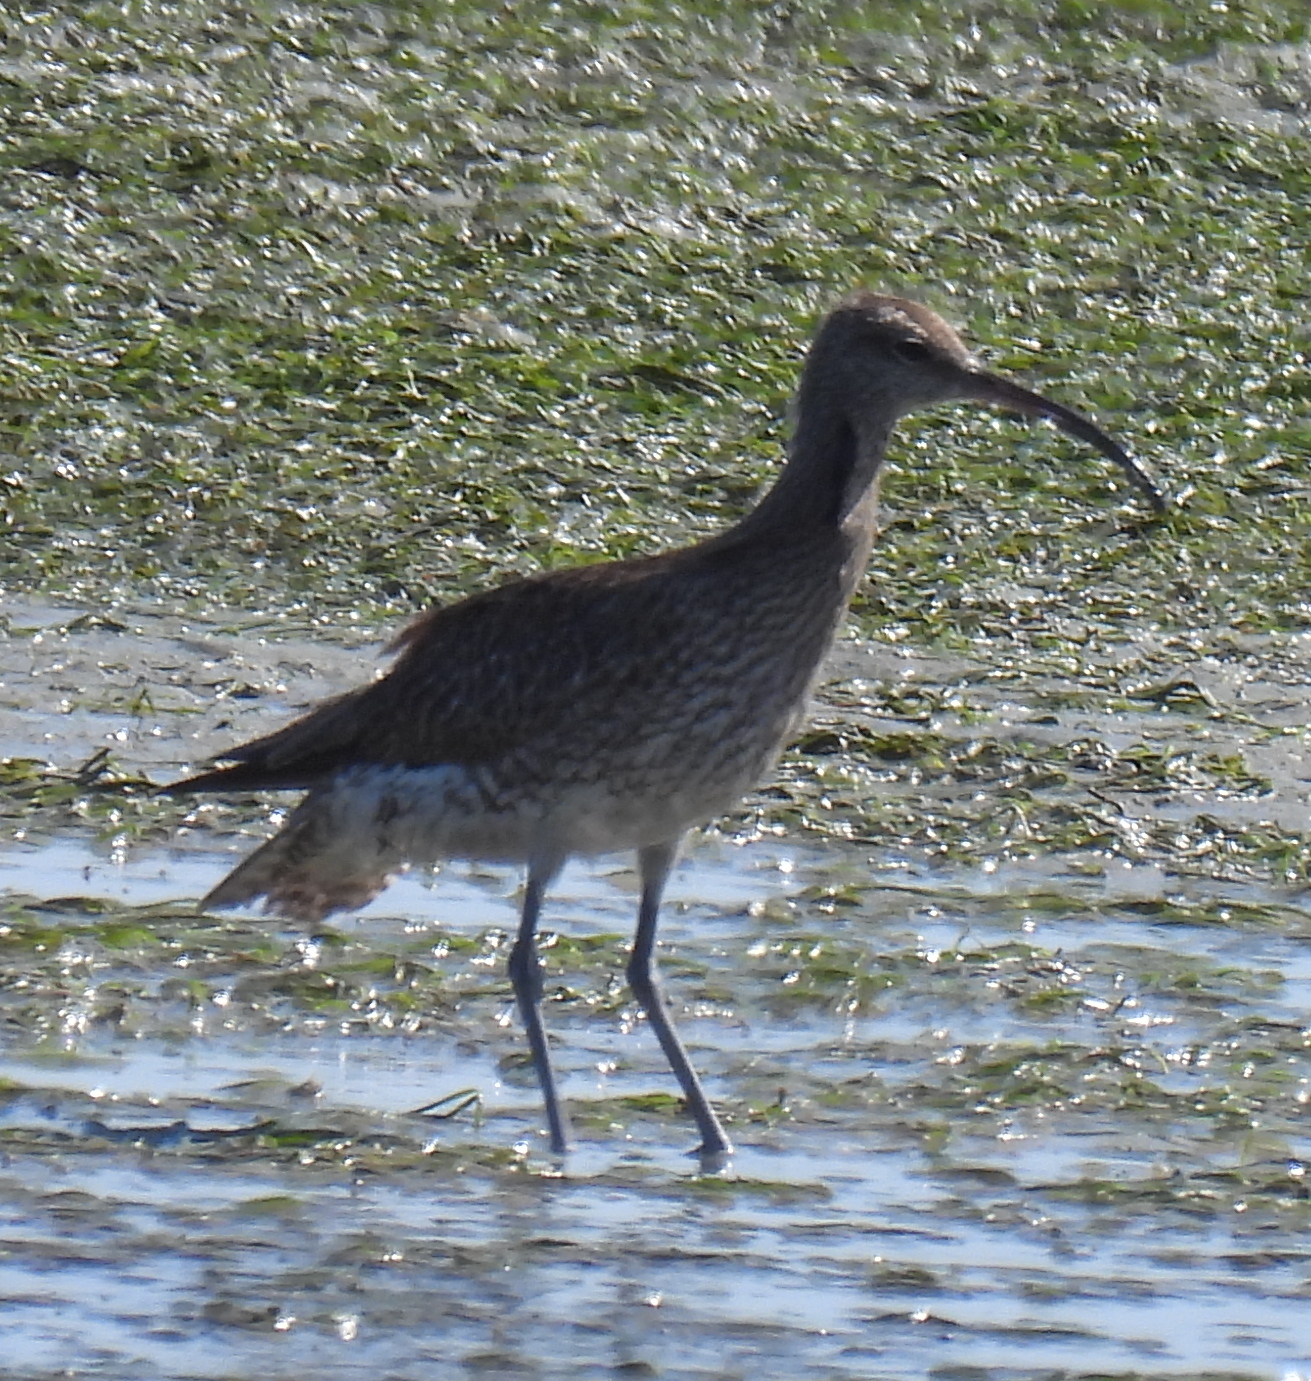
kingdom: Animalia
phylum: Chordata
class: Aves
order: Charadriiformes
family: Scolopacidae
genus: Numenius
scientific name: Numenius arquata
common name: Eurasian curlew
